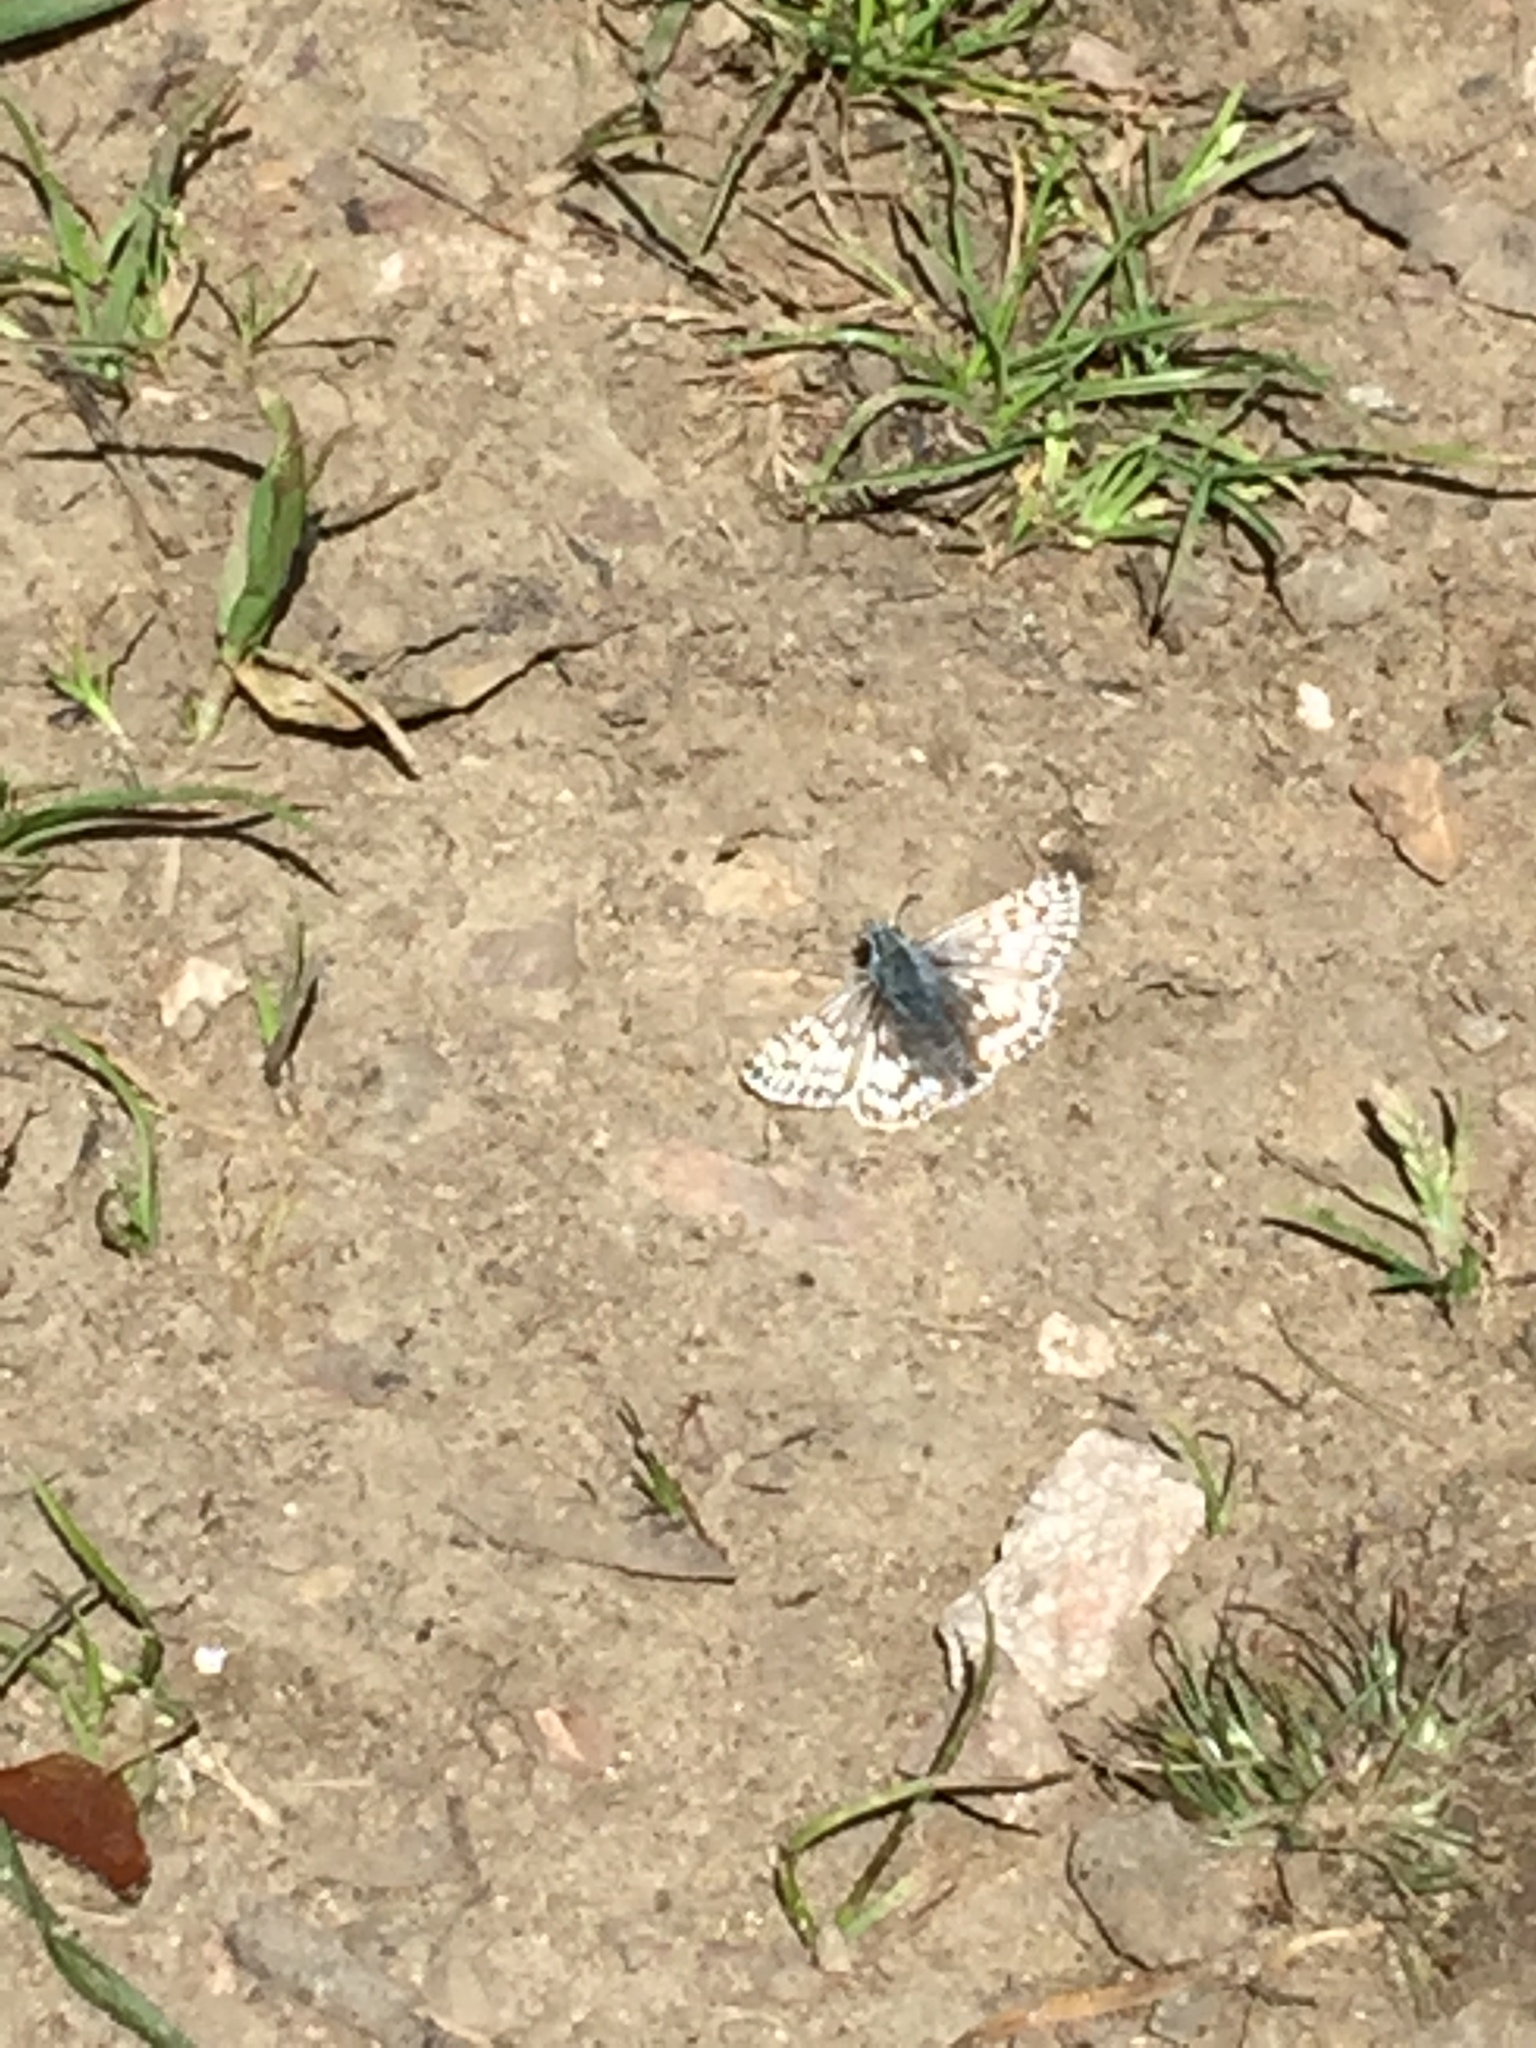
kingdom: Animalia
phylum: Arthropoda
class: Insecta
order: Lepidoptera
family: Hesperiidae
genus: Burnsius
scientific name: Burnsius communis
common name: Common checkered-skipper
